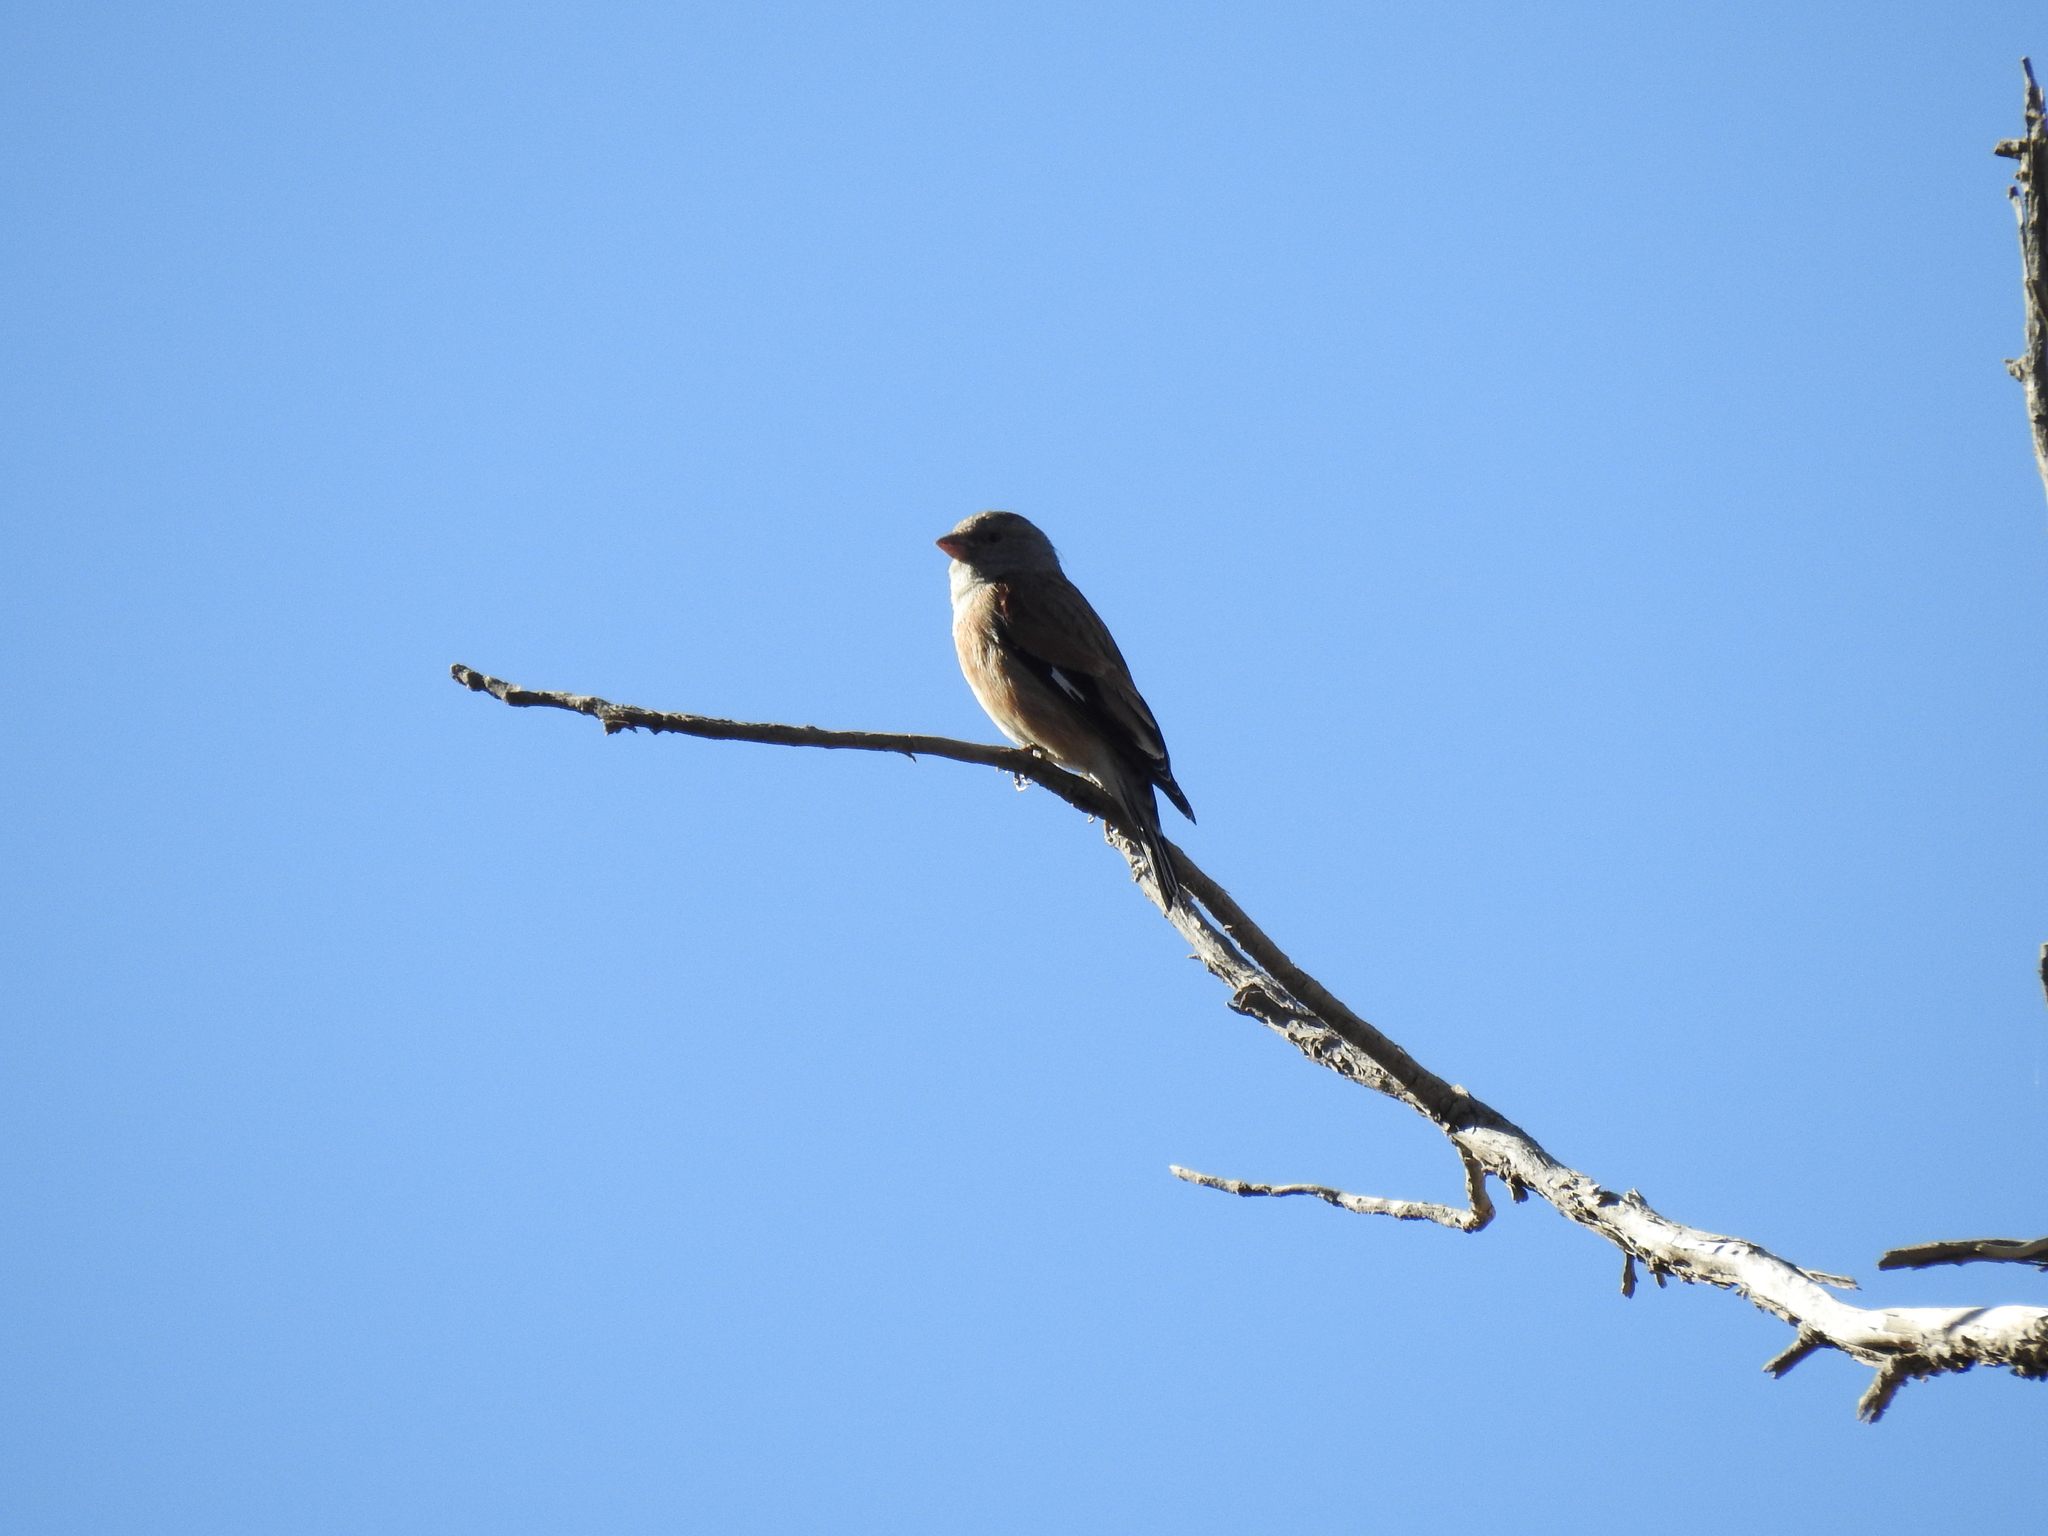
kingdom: Animalia
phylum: Chordata
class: Aves
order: Passeriformes
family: Fringillidae
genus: Linaria
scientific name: Linaria yemenensis
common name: Yemen linnet
